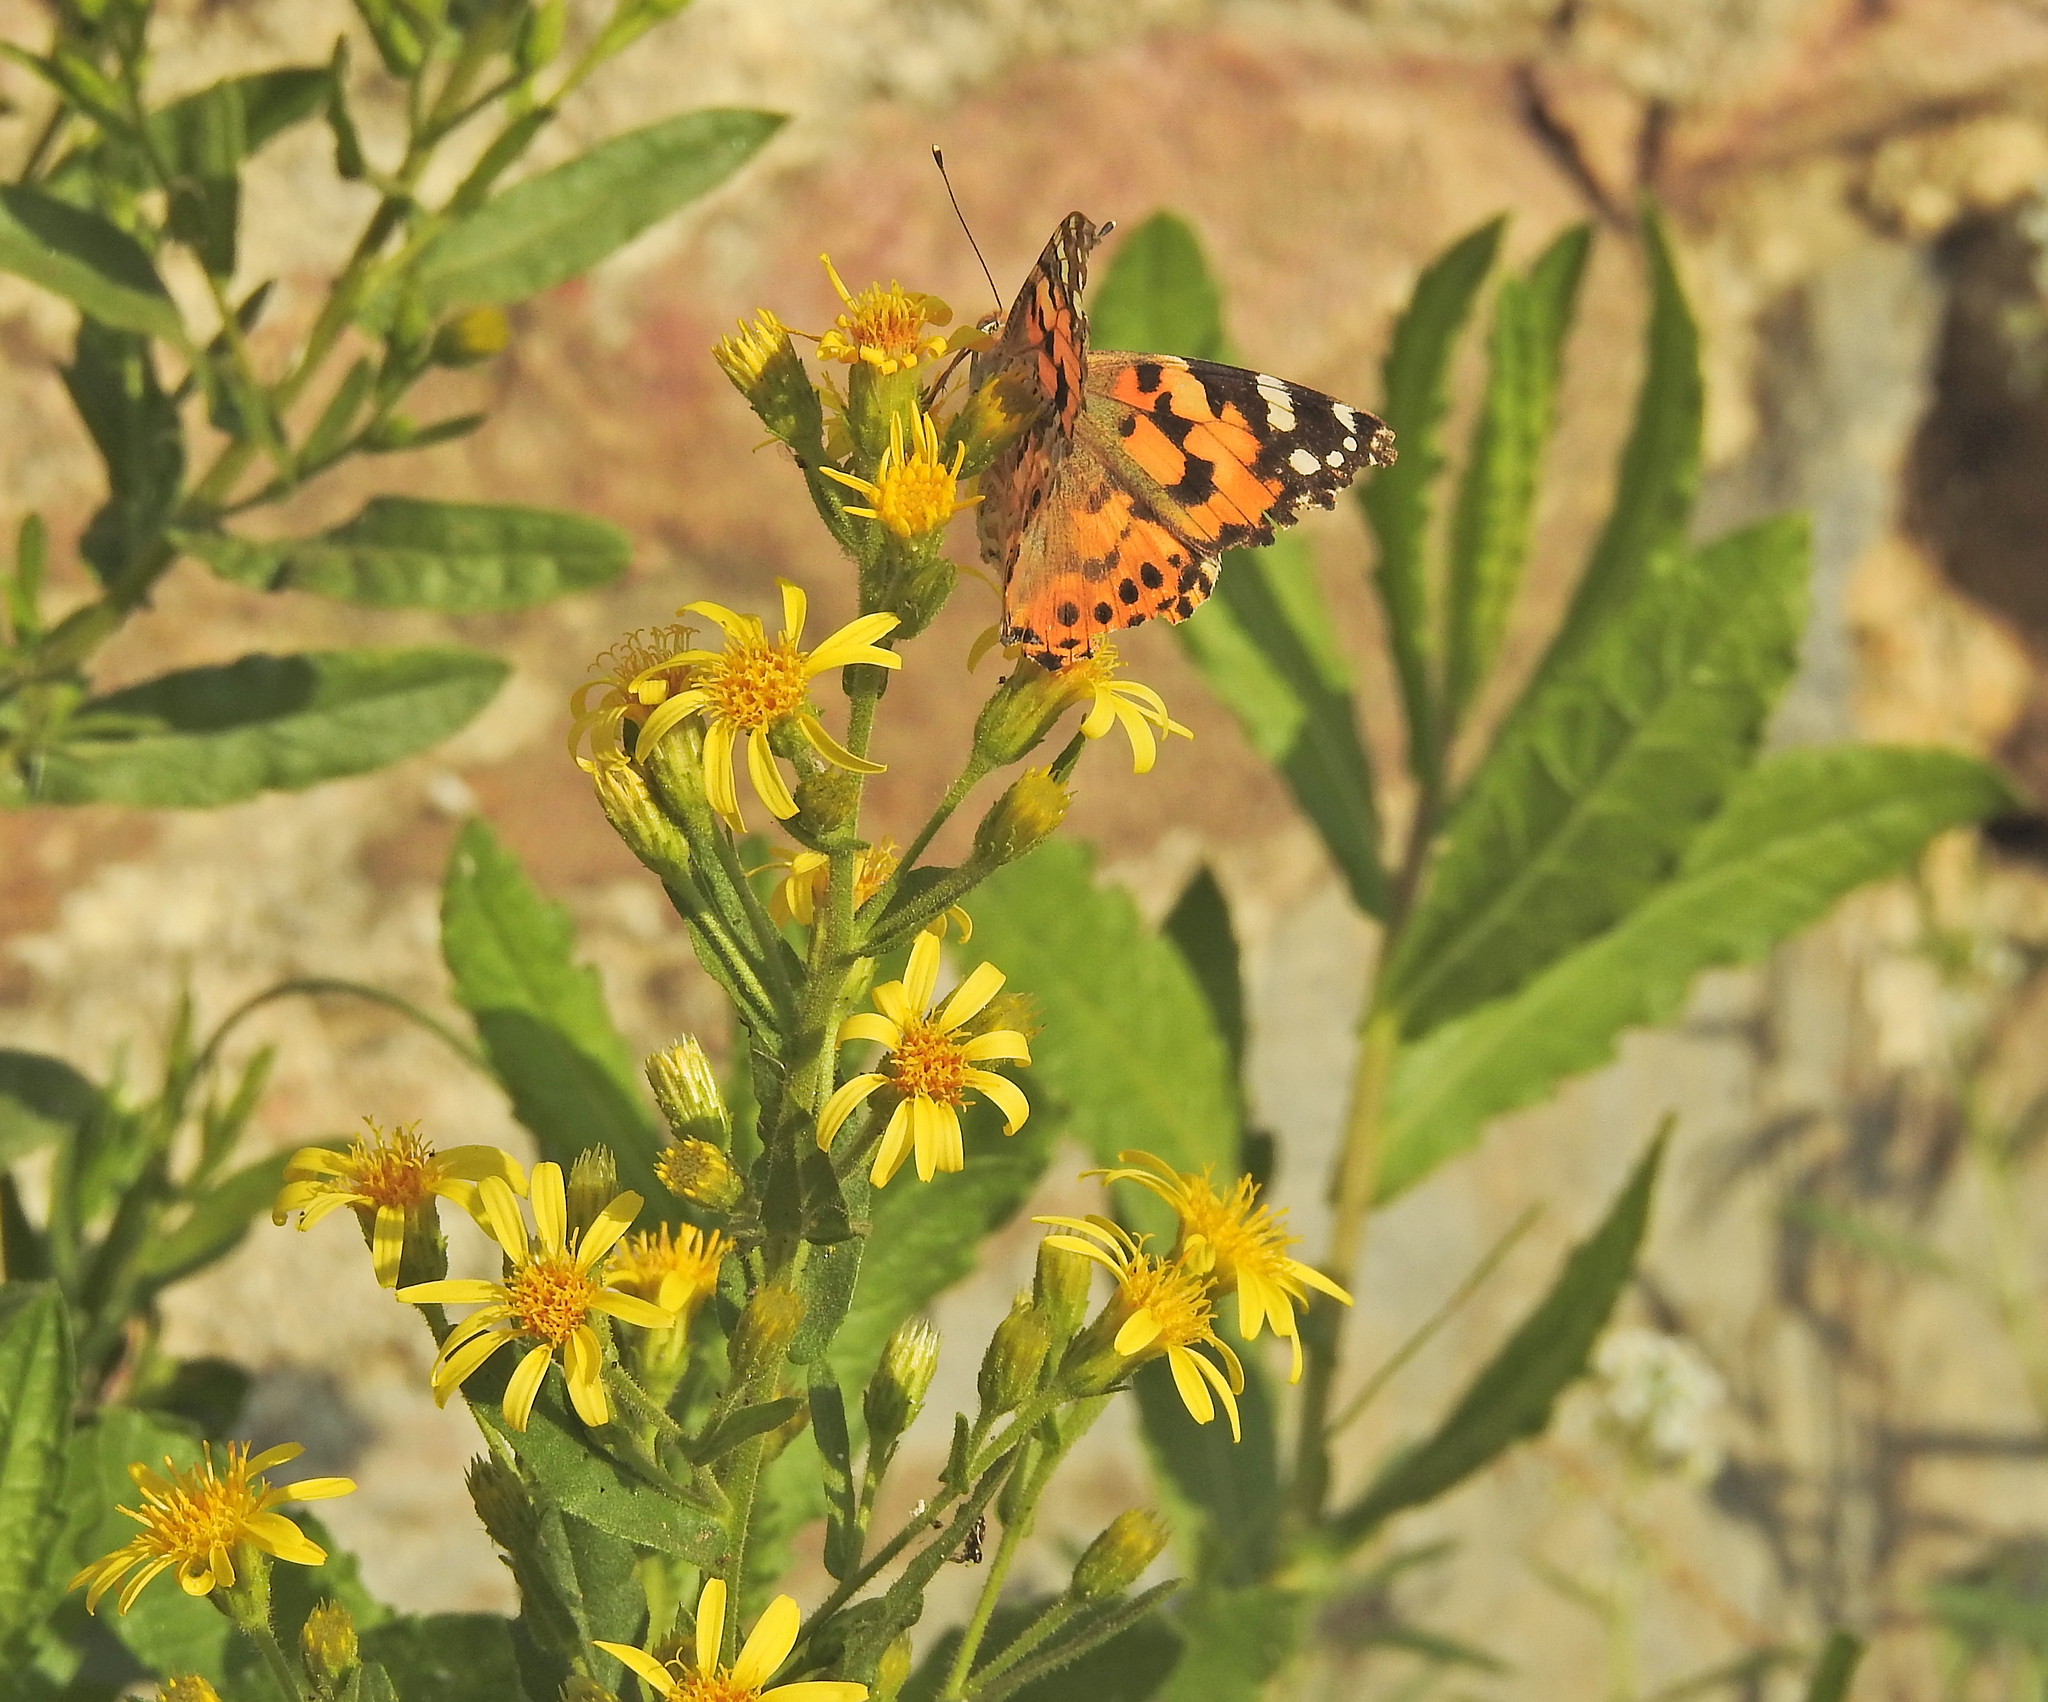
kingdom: Plantae
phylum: Tracheophyta
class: Magnoliopsida
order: Asterales
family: Asteraceae
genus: Dittrichia
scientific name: Dittrichia viscosa
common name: Woody fleabane
